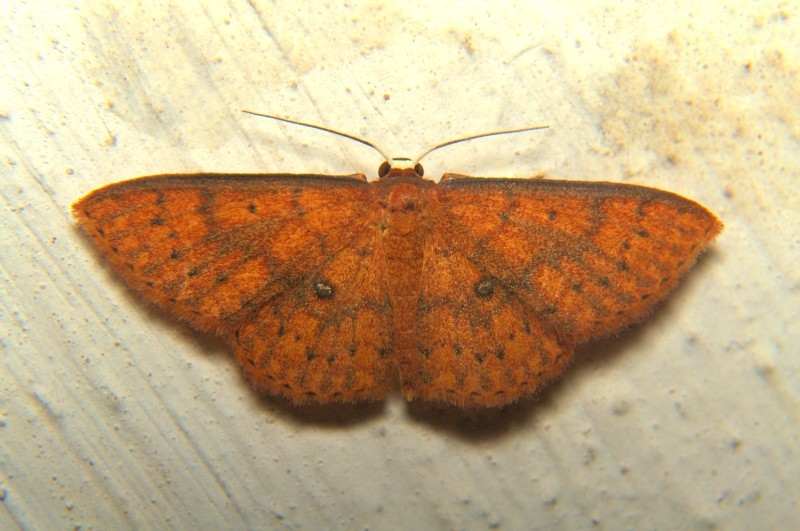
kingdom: Animalia
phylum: Arthropoda
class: Insecta
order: Lepidoptera
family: Geometridae
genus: Organopoda
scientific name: Organopoda carnearia
